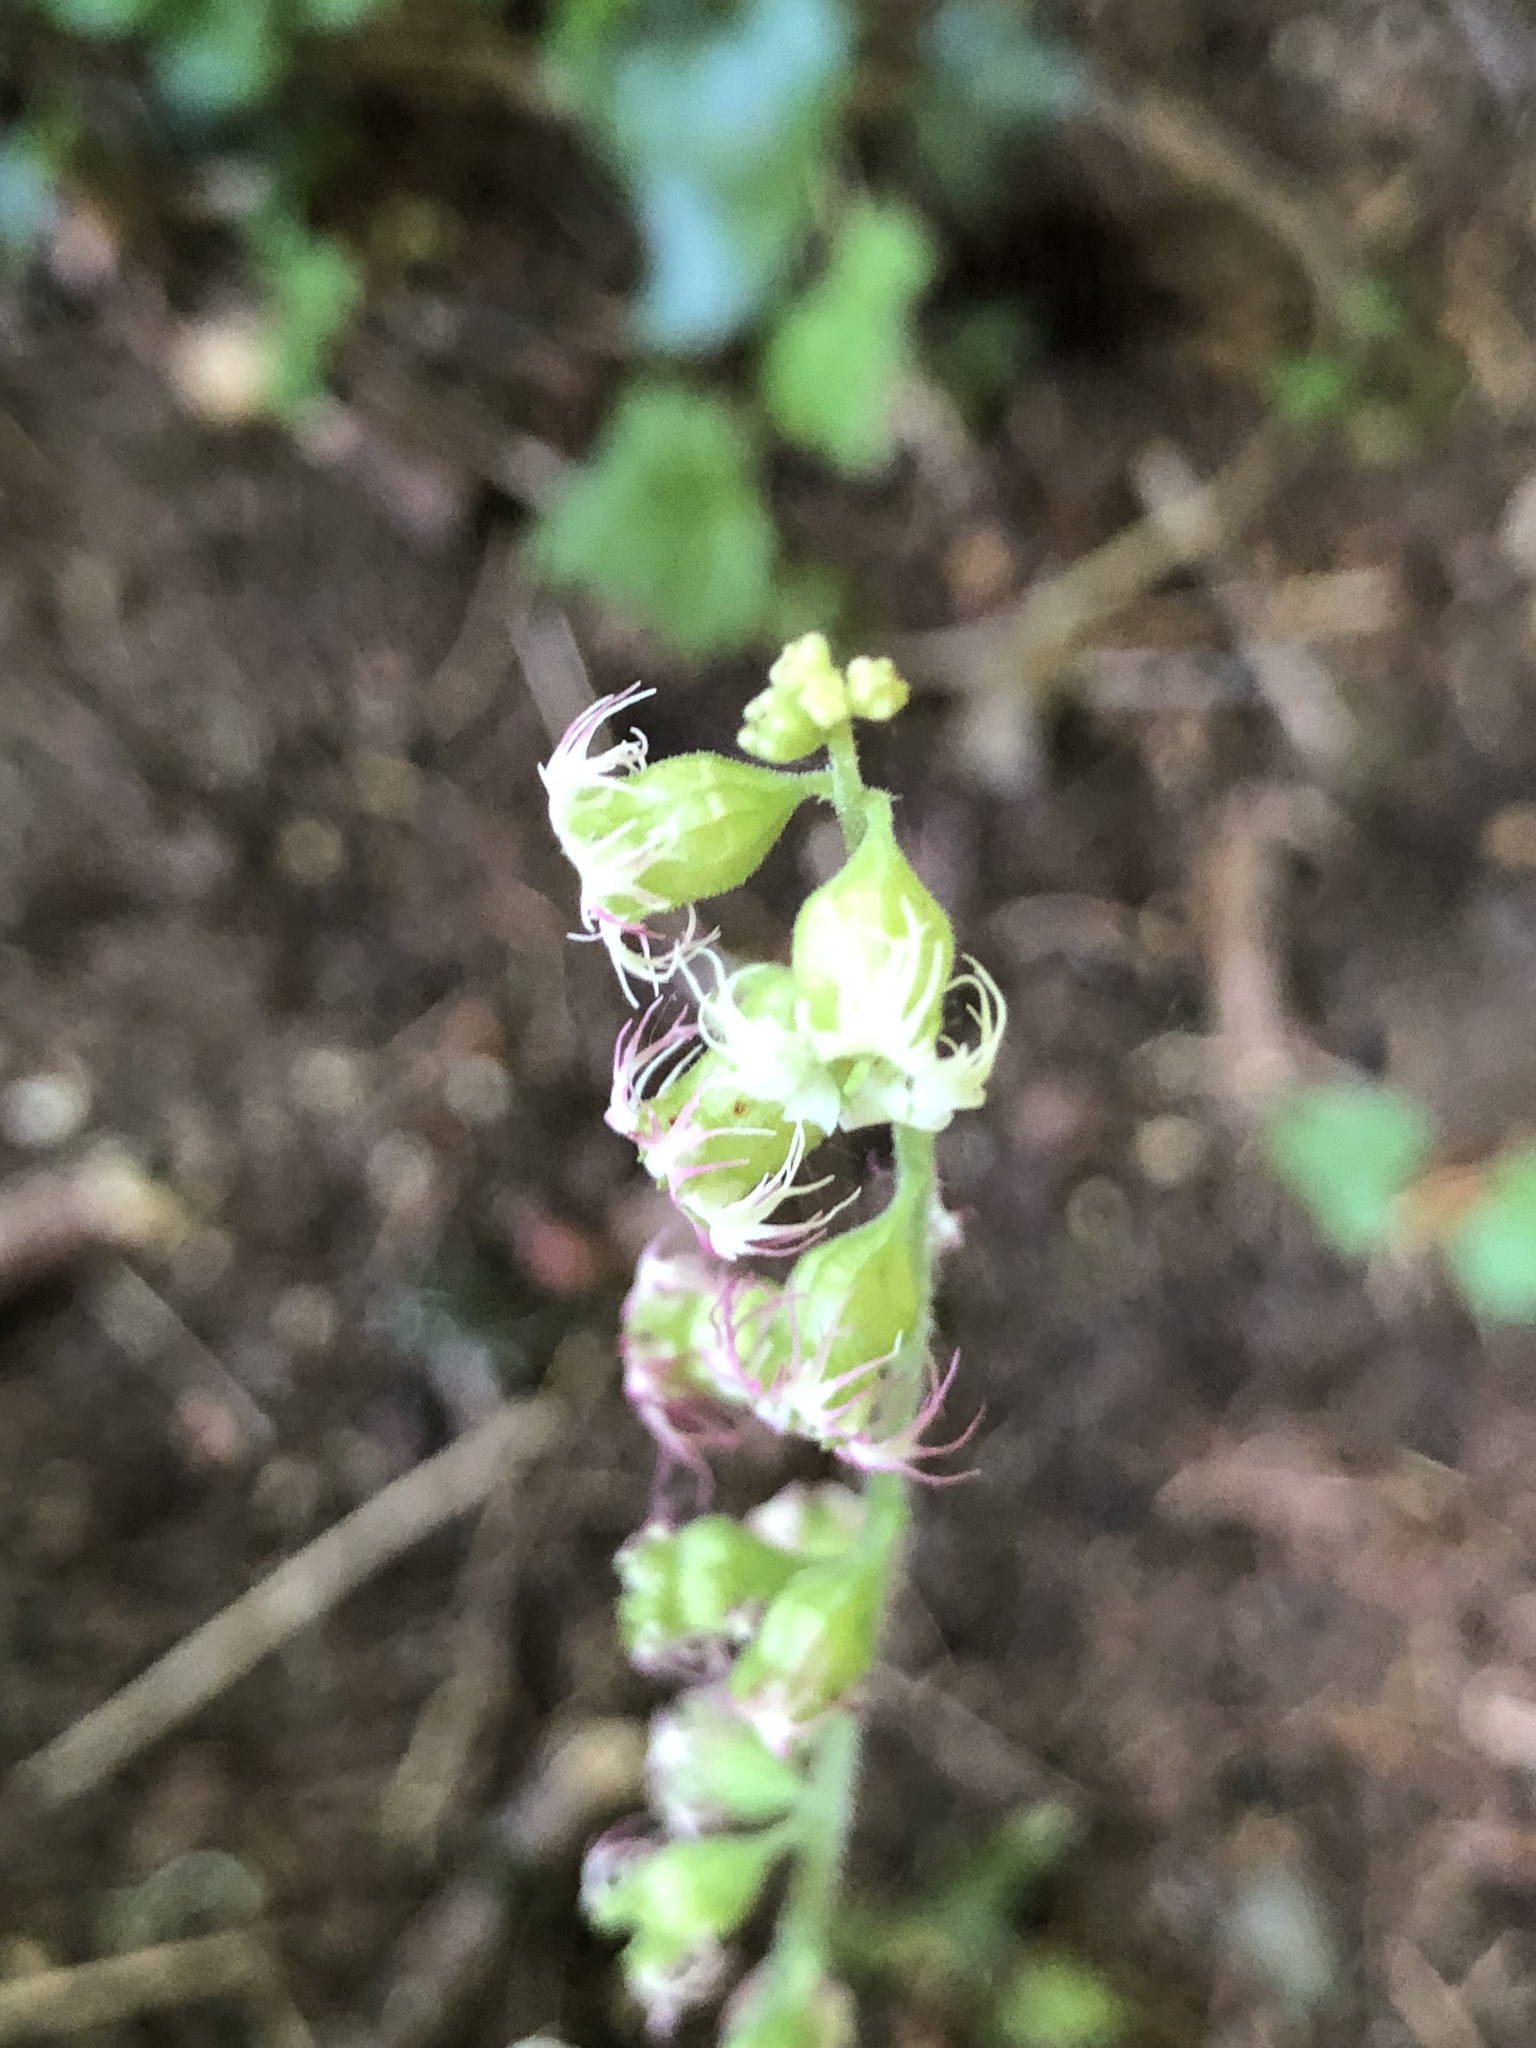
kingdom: Plantae
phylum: Tracheophyta
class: Magnoliopsida
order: Saxifragales
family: Saxifragaceae
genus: Tellima
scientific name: Tellima grandiflora
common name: Fringecups
